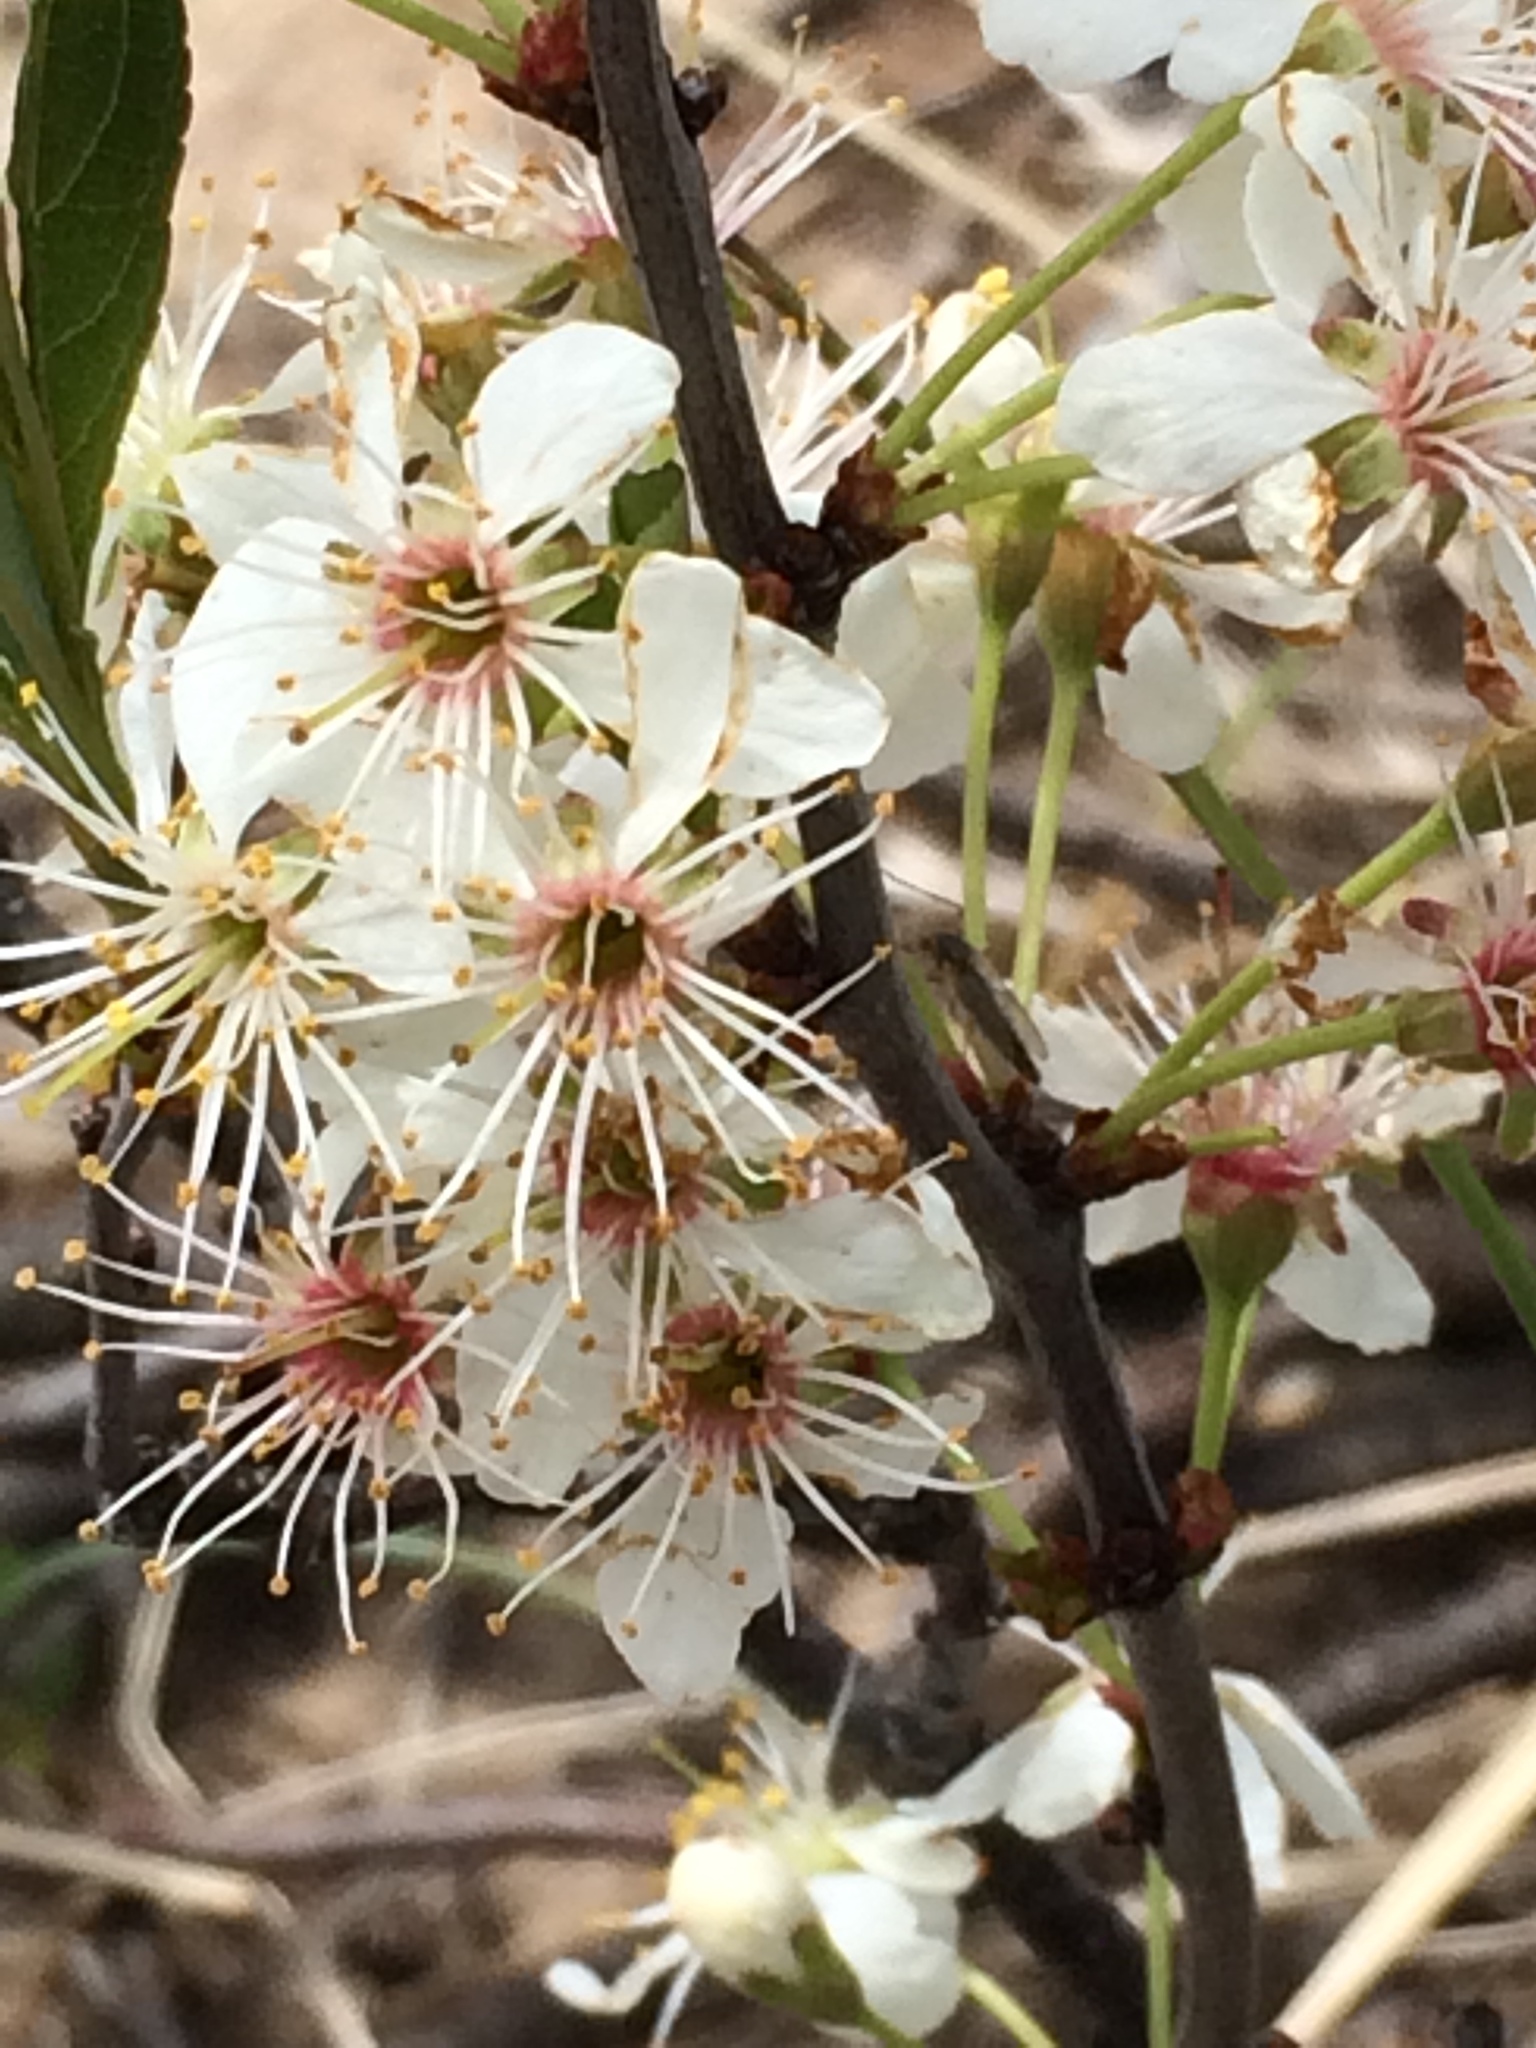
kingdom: Plantae
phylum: Tracheophyta
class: Magnoliopsida
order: Rosales
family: Rosaceae
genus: Prunus
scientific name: Prunus pumila
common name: Dwarf cherry
